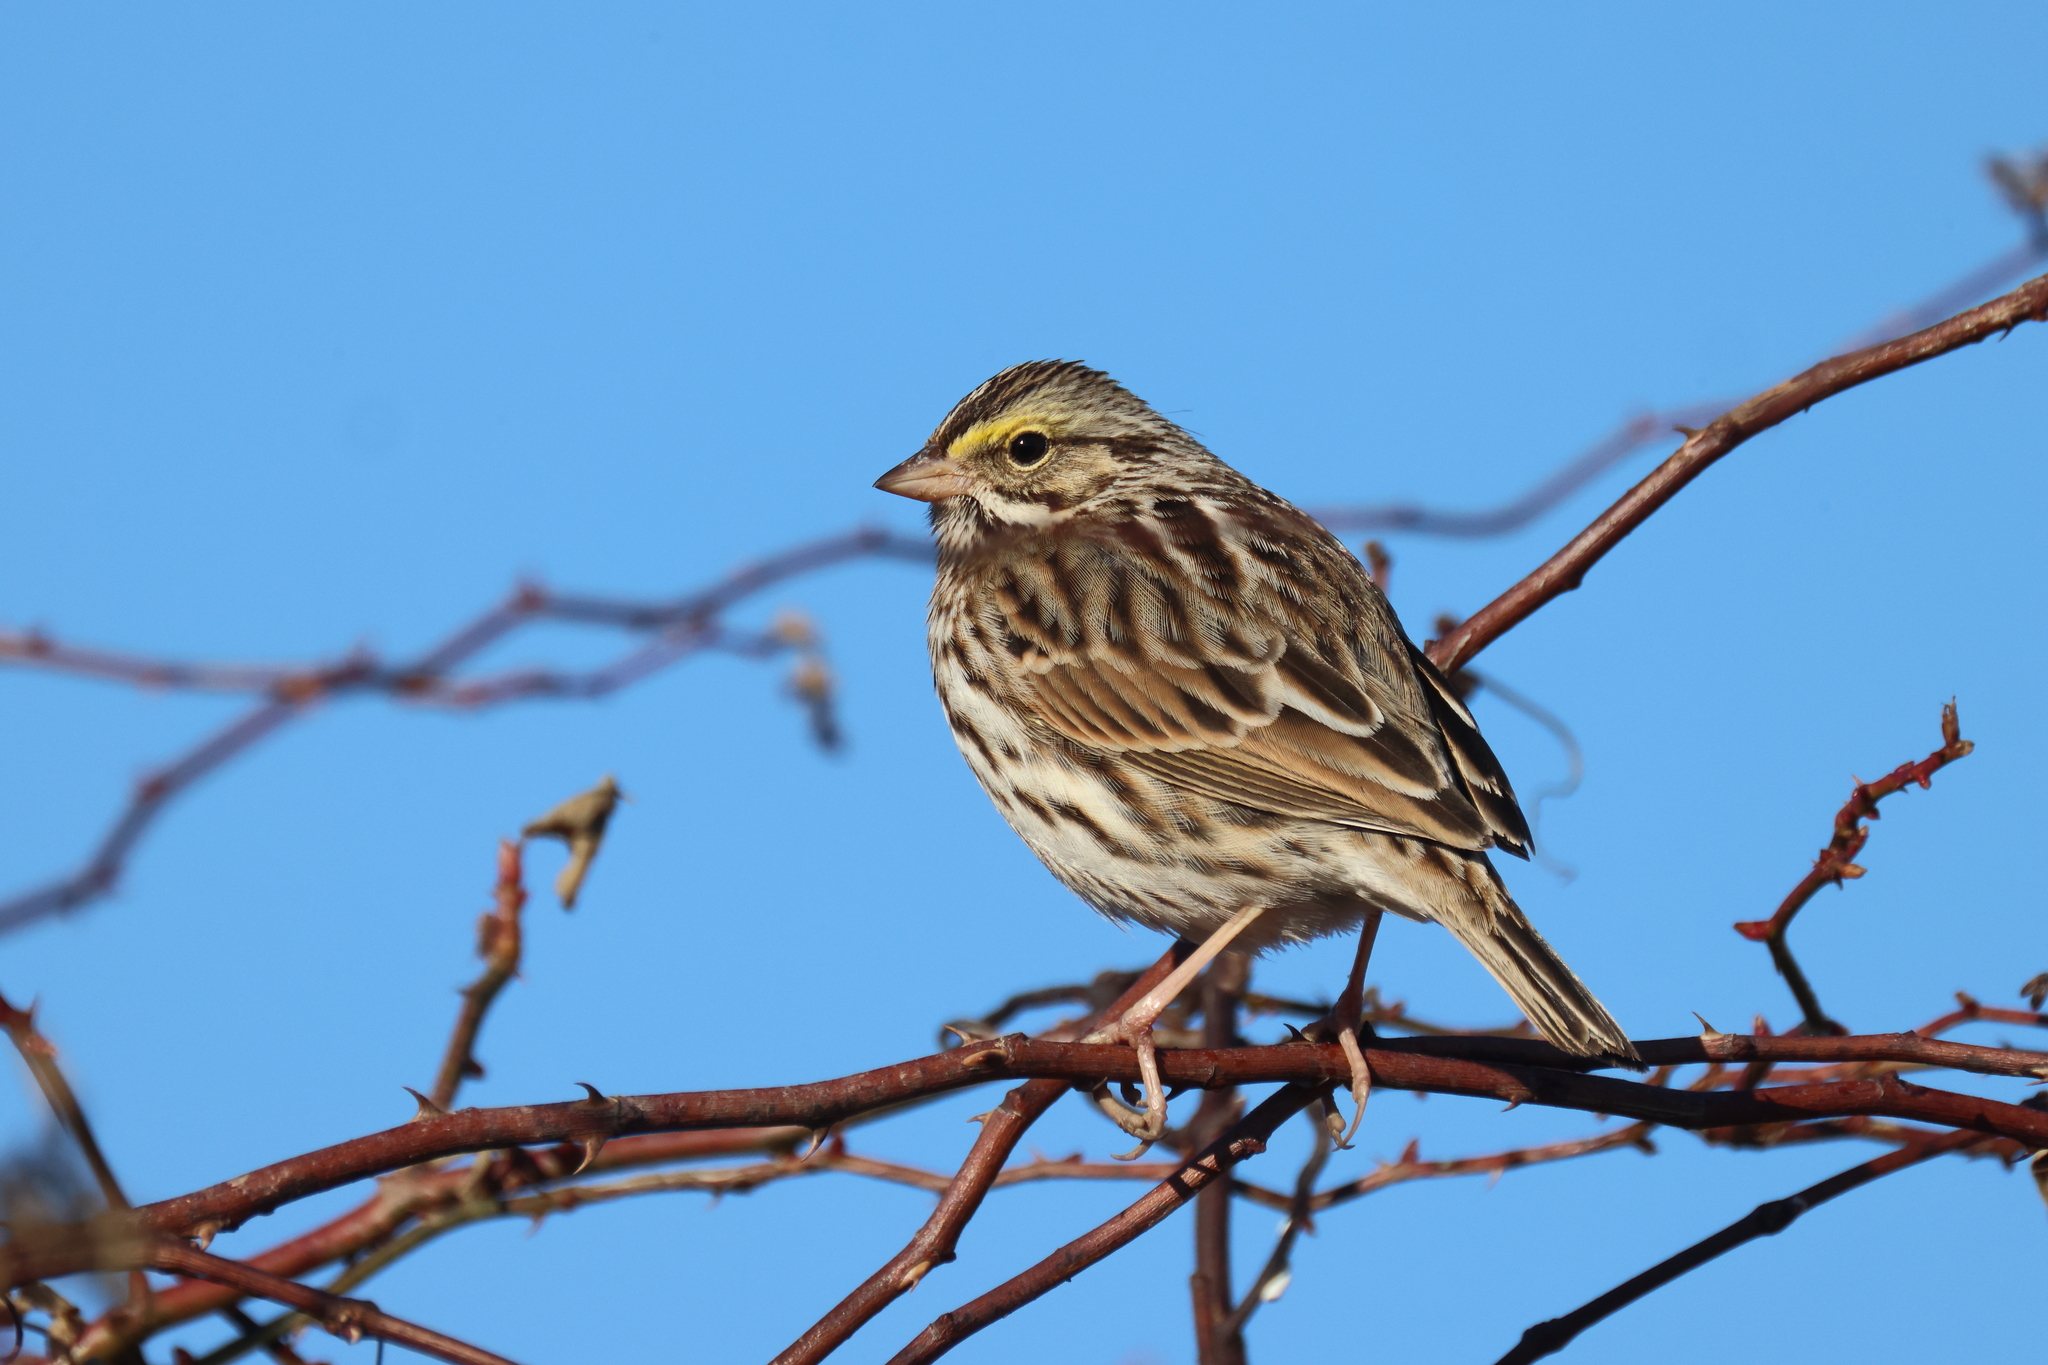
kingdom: Animalia
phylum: Chordata
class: Aves
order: Passeriformes
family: Passerellidae
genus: Passerculus
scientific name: Passerculus sandwichensis
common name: Savannah sparrow
